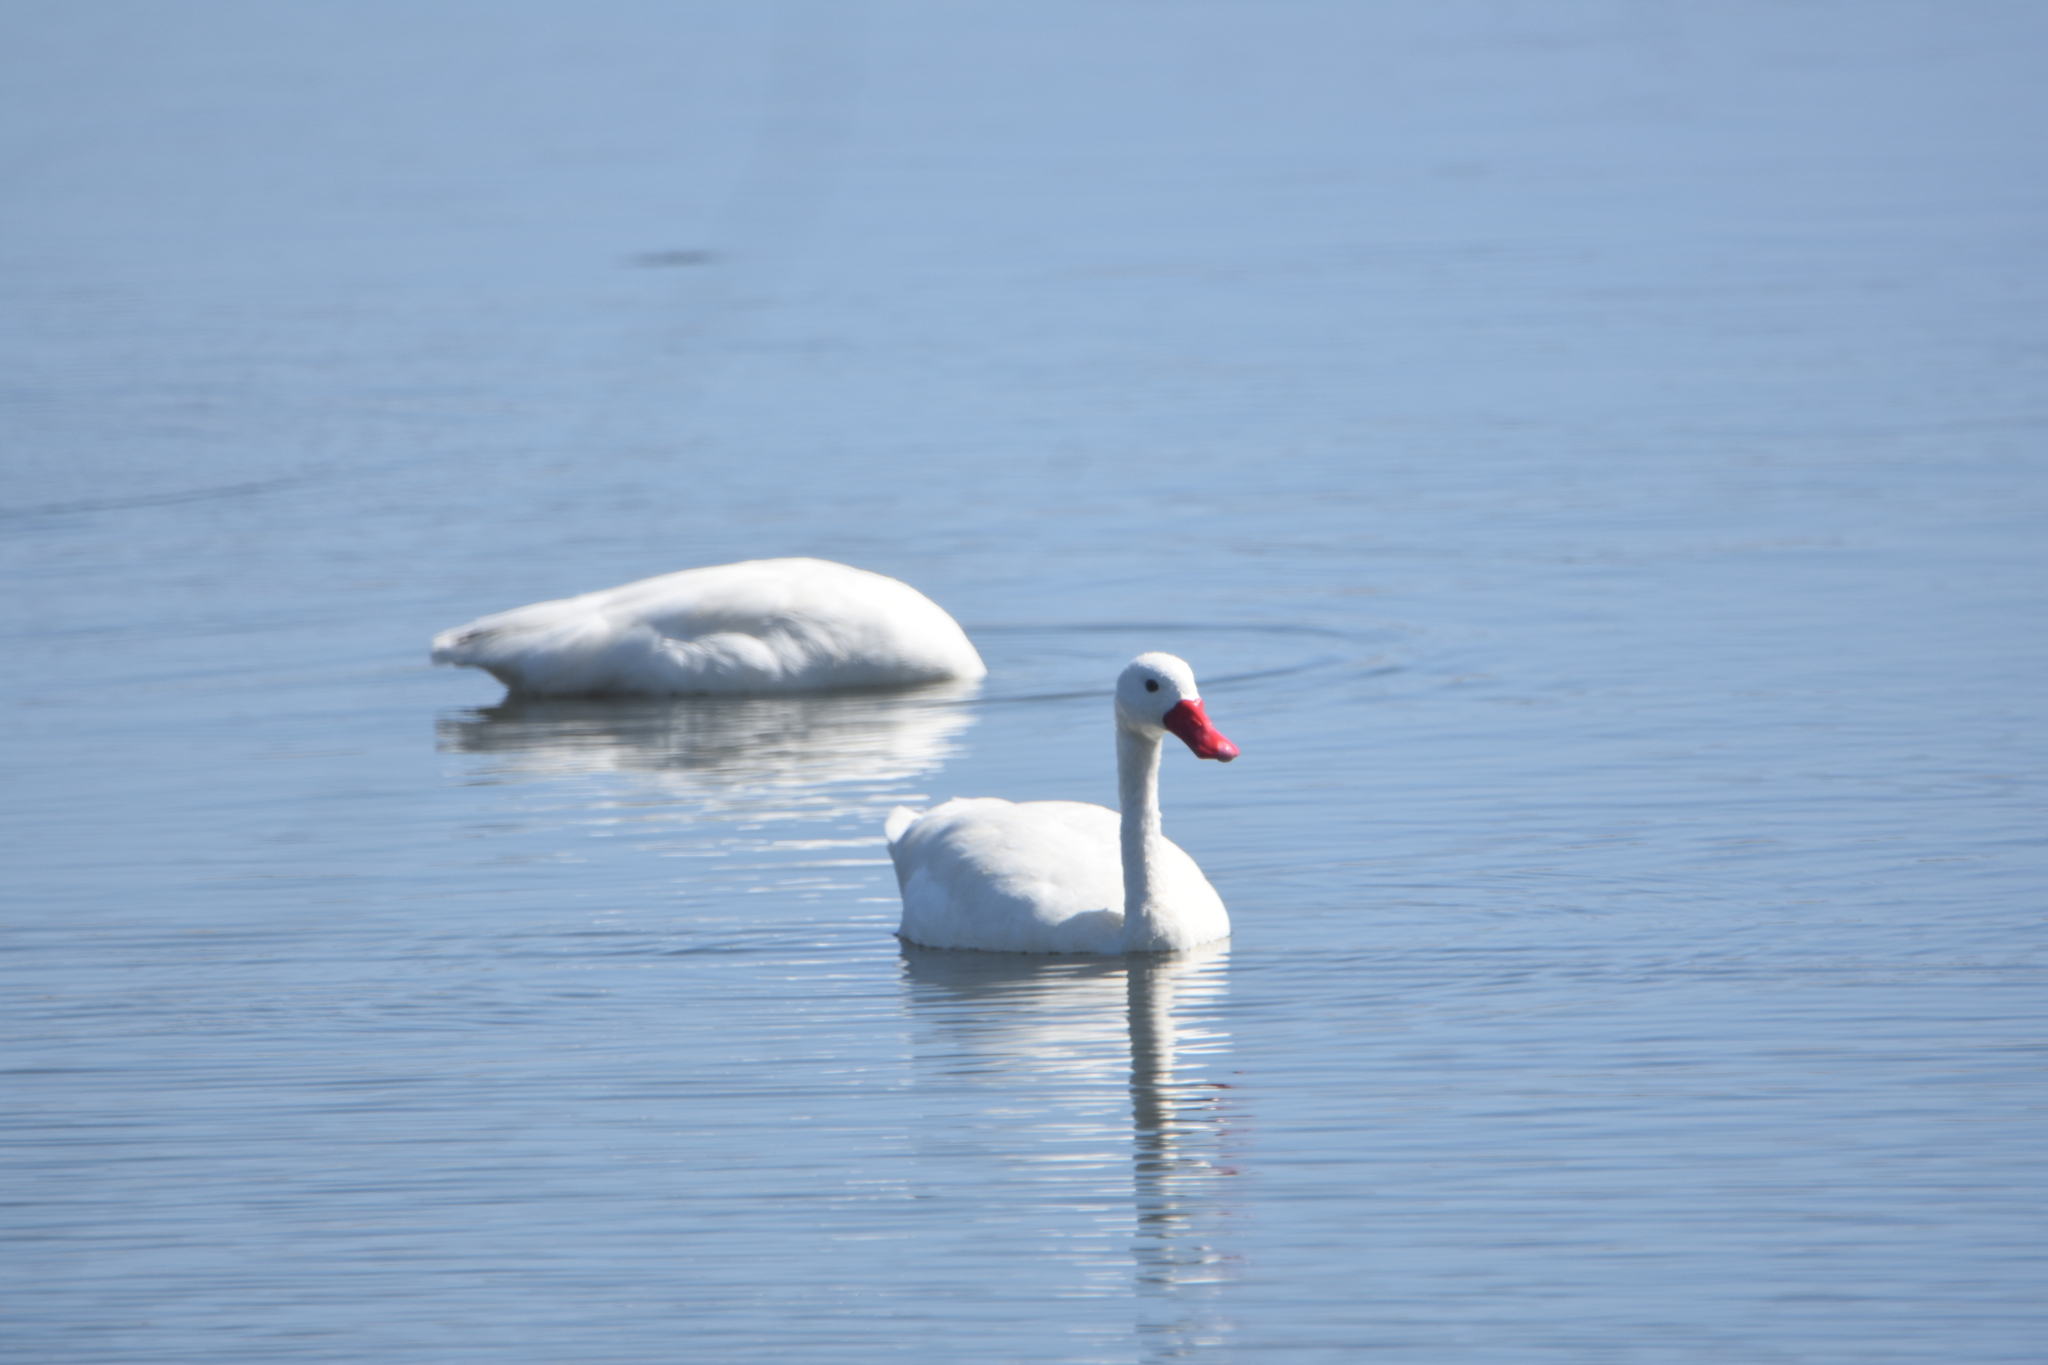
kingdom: Animalia
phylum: Chordata
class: Aves
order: Anseriformes
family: Anatidae
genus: Coscoroba
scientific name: Coscoroba coscoroba
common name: Coscoroba swan
